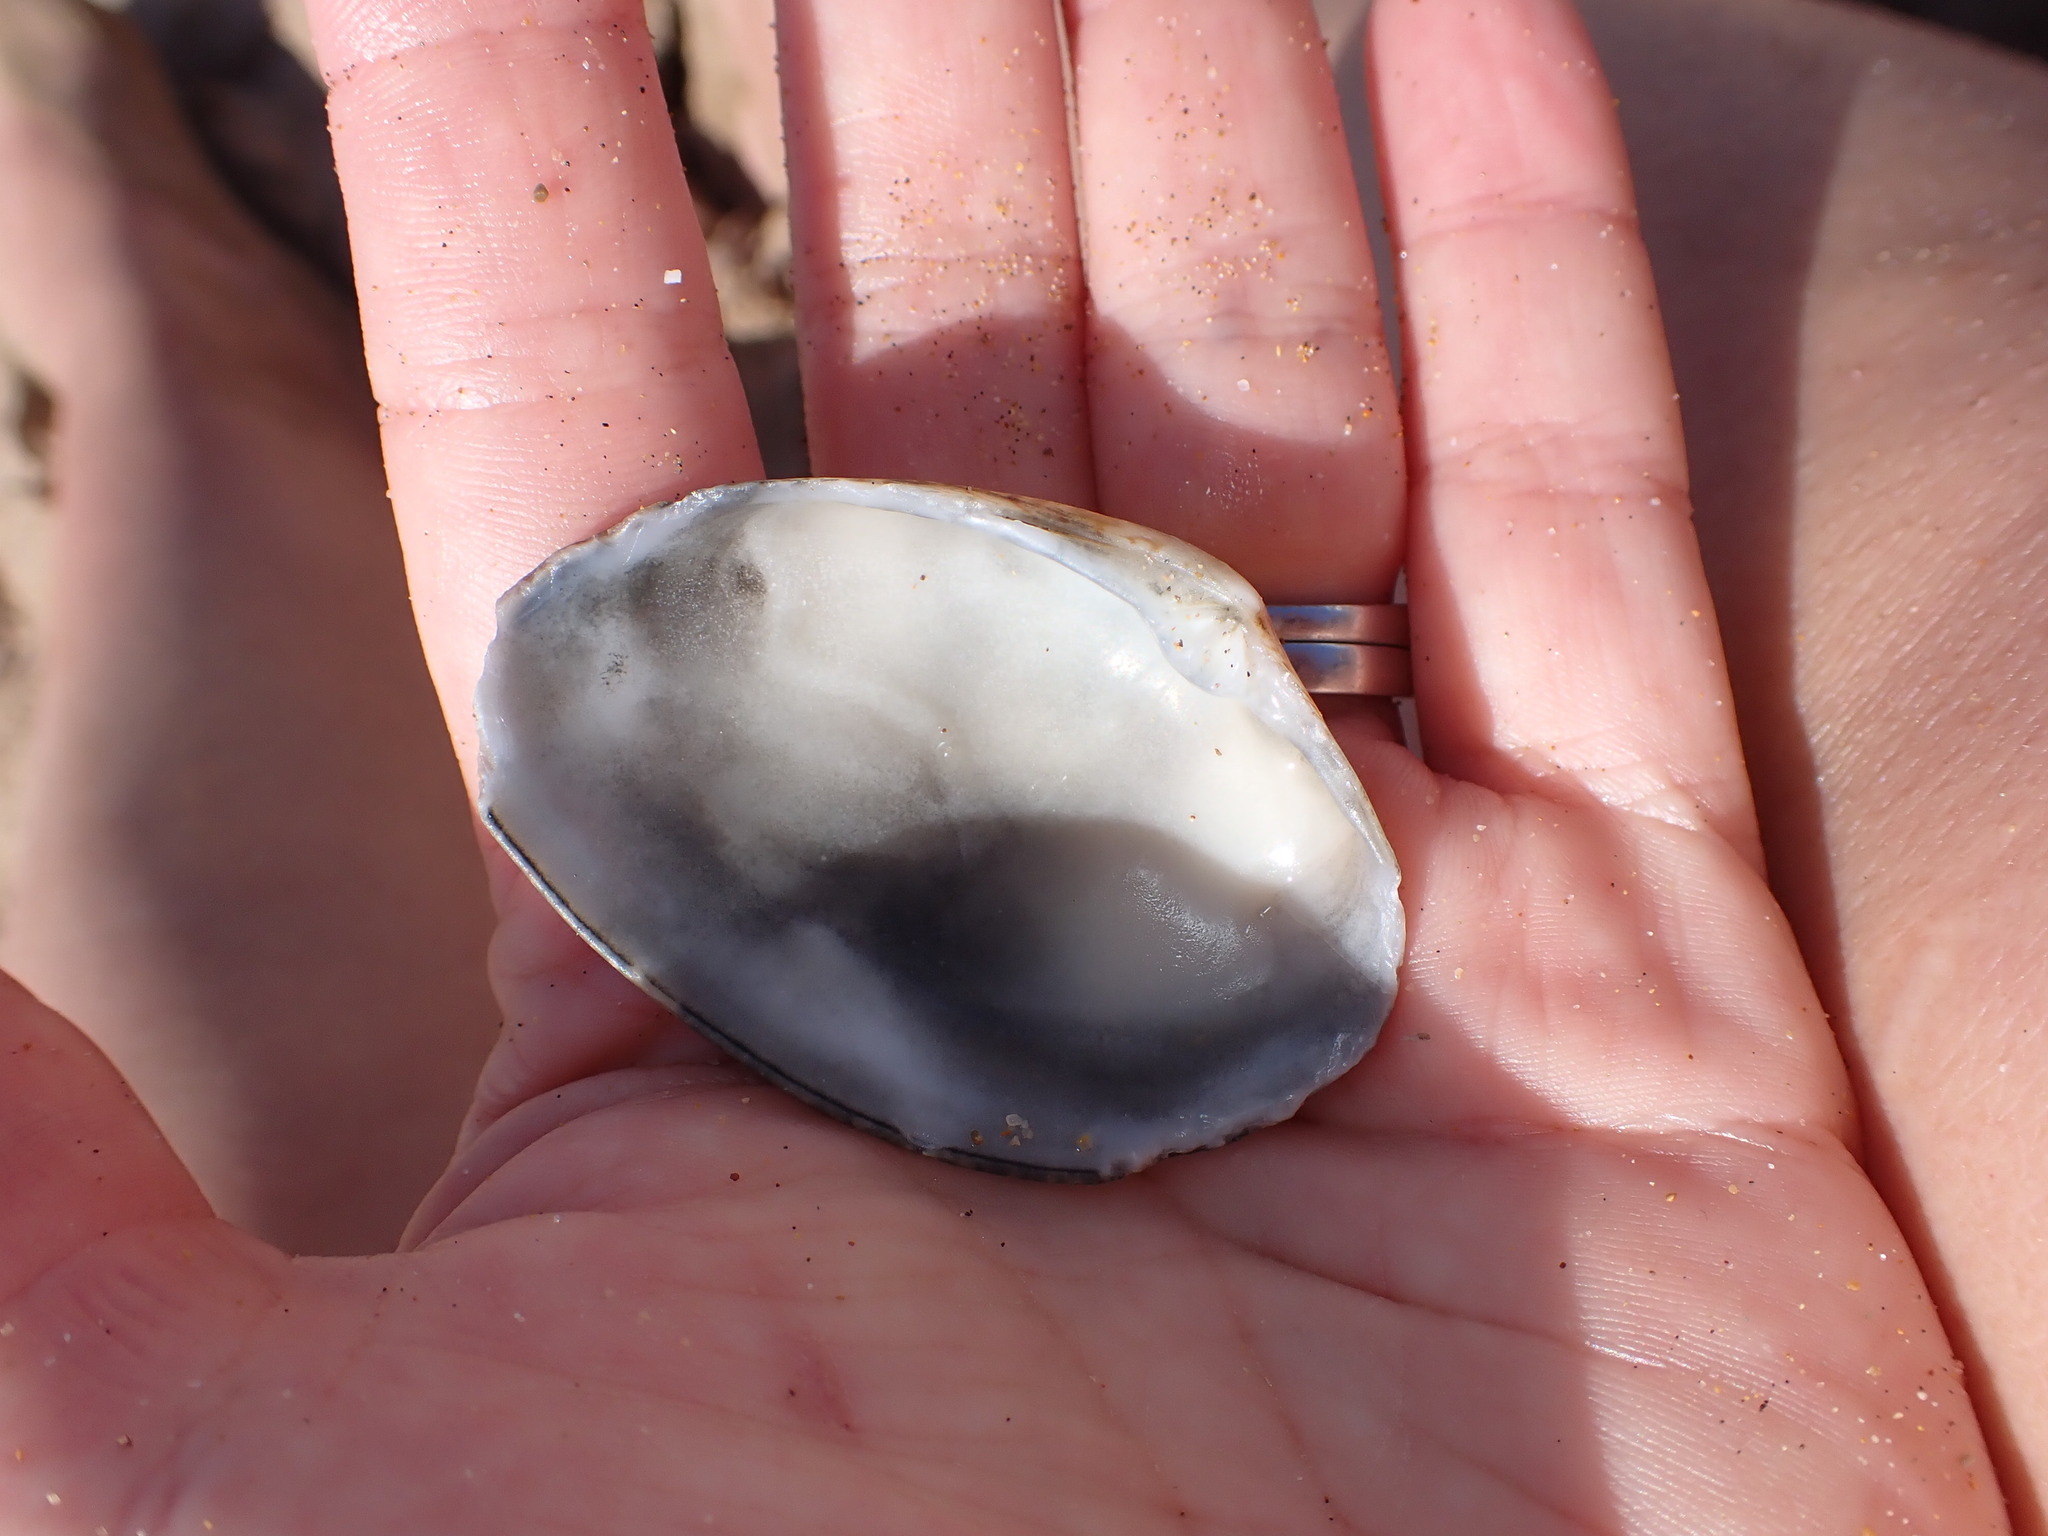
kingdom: Animalia
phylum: Mollusca
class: Bivalvia
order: Venerida
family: Veneridae
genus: Polititapes
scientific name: Polititapes durus
